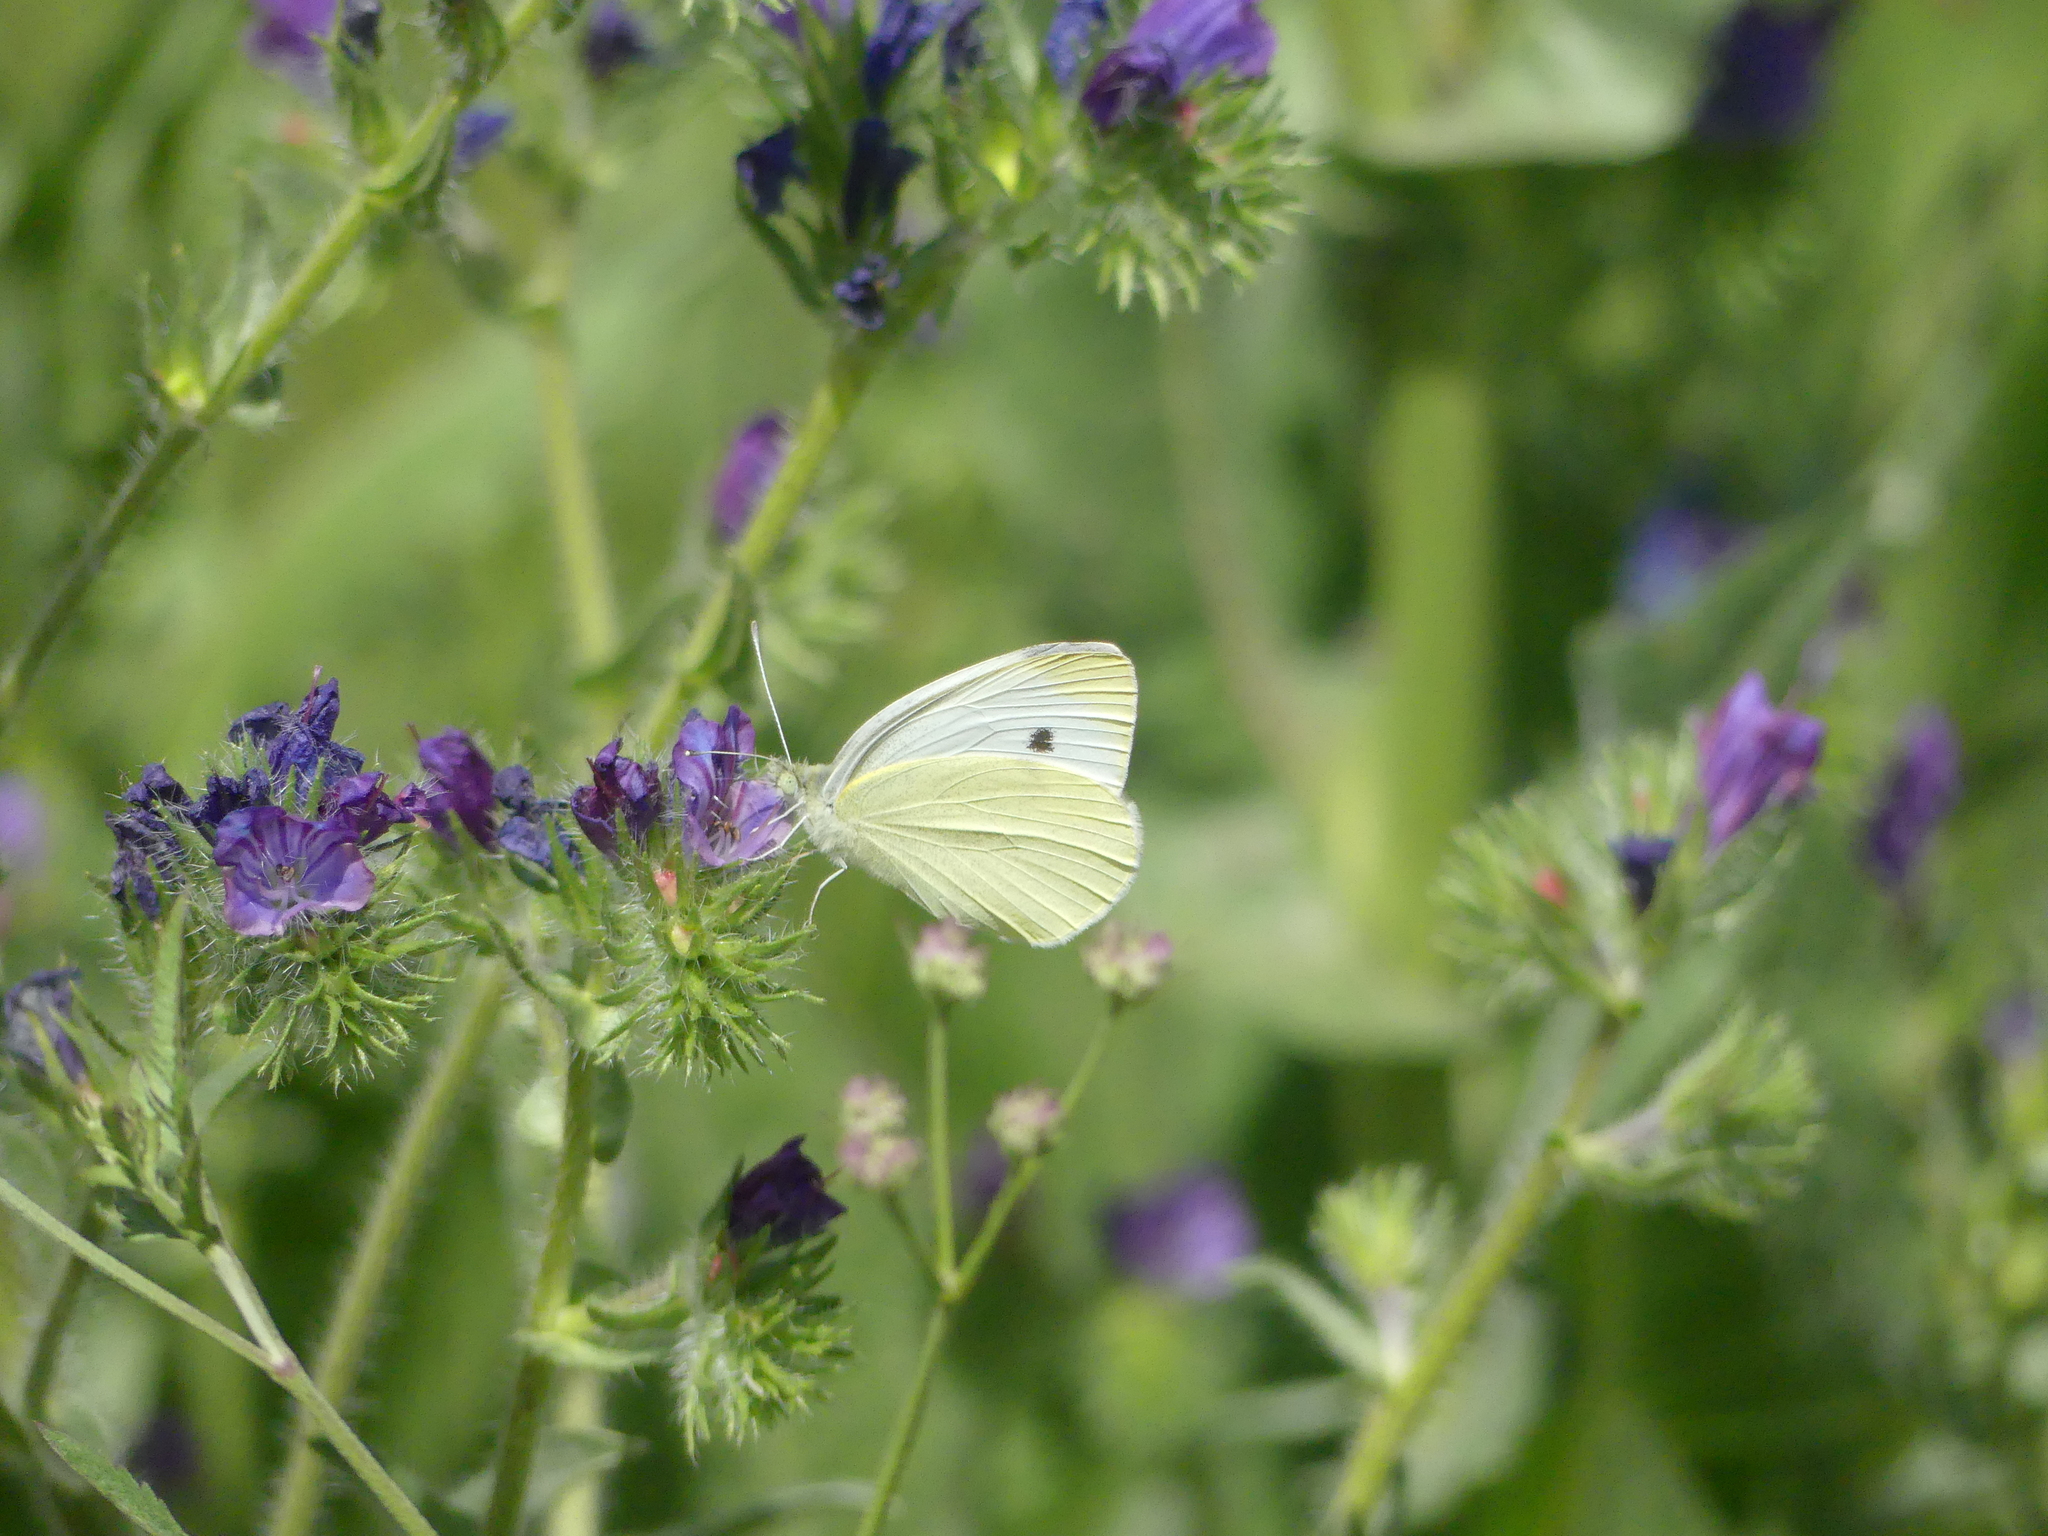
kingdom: Animalia
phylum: Arthropoda
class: Insecta
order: Lepidoptera
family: Pieridae
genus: Pieris
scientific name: Pieris mannii
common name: Southern small white
